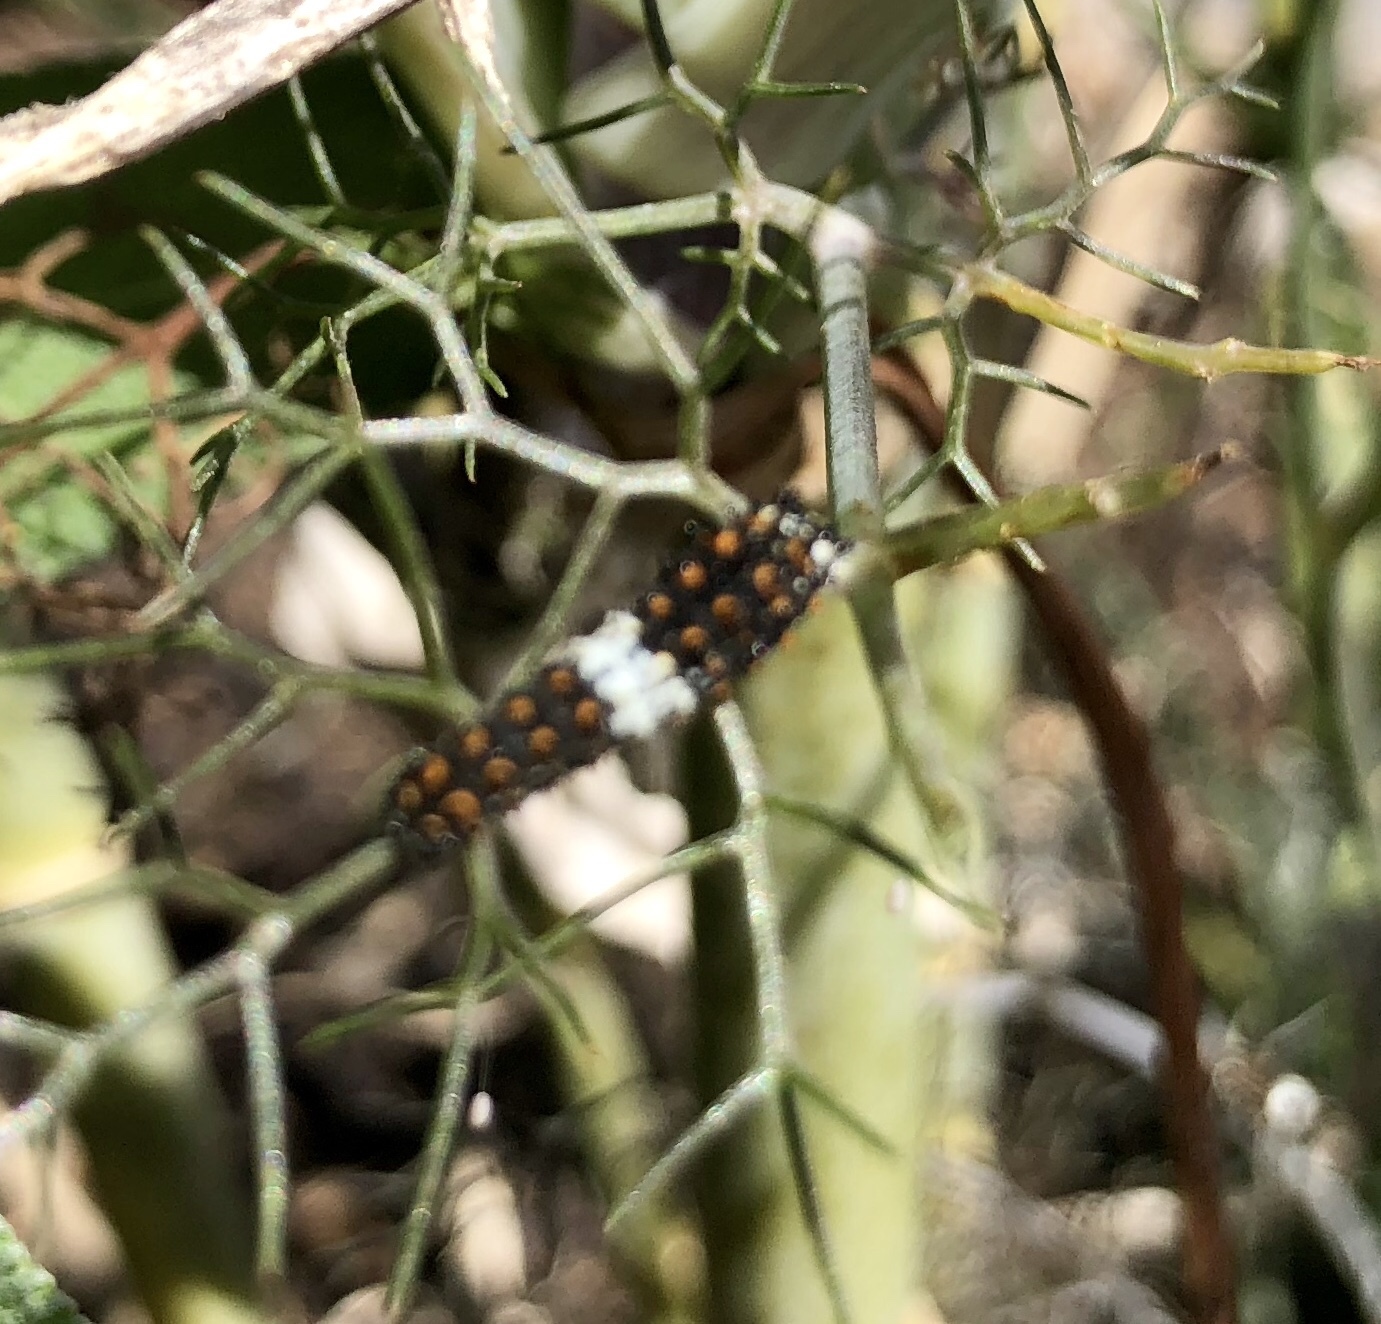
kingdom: Animalia
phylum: Arthropoda
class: Insecta
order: Lepidoptera
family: Papilionidae
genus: Papilio
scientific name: Papilio polyxenes
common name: Black swallowtail
